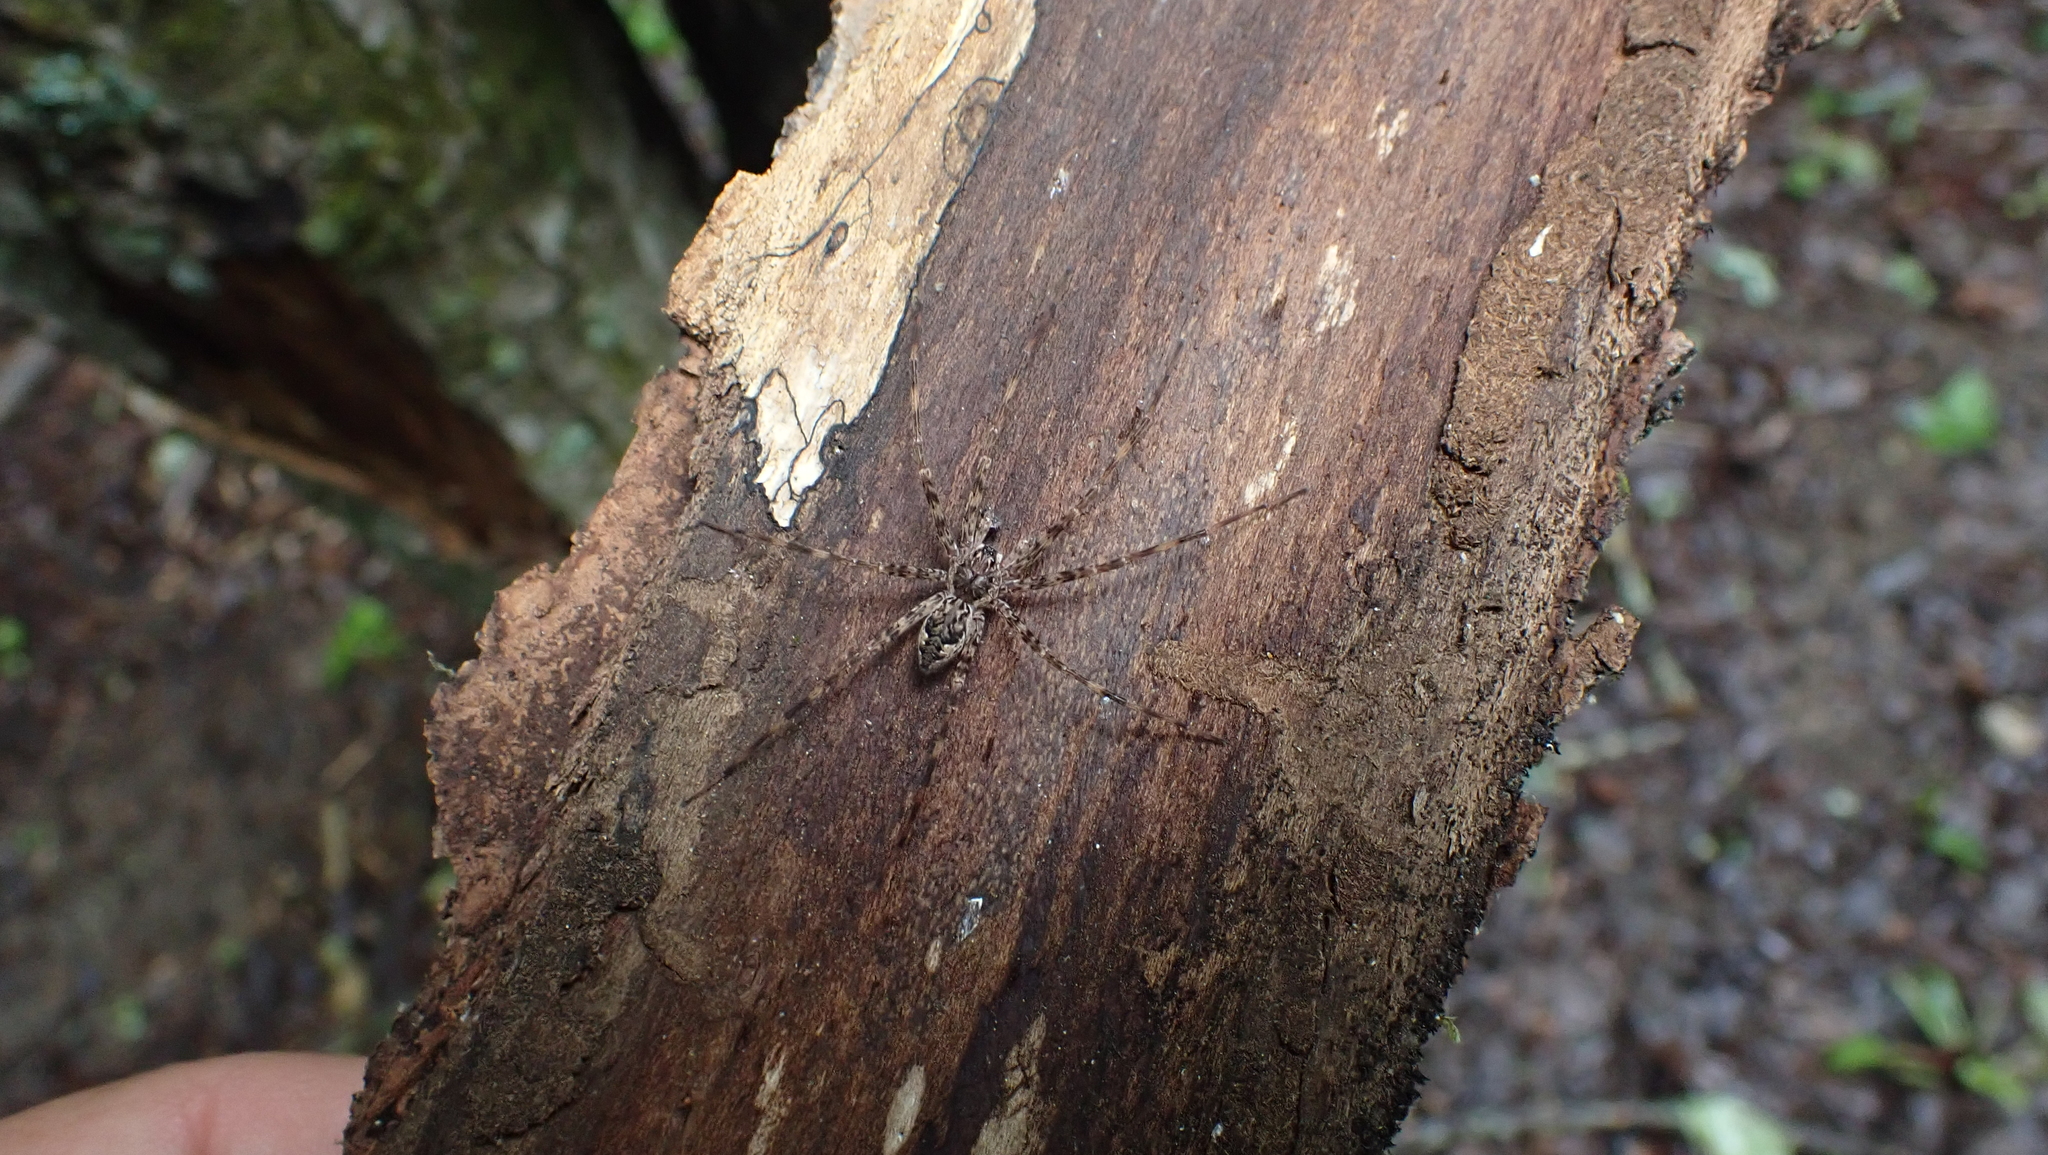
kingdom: Animalia
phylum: Arthropoda
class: Arachnida
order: Araneae
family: Pisauridae
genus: Dolomedes
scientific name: Dolomedes tenebrosus
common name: Dark fishing spider
